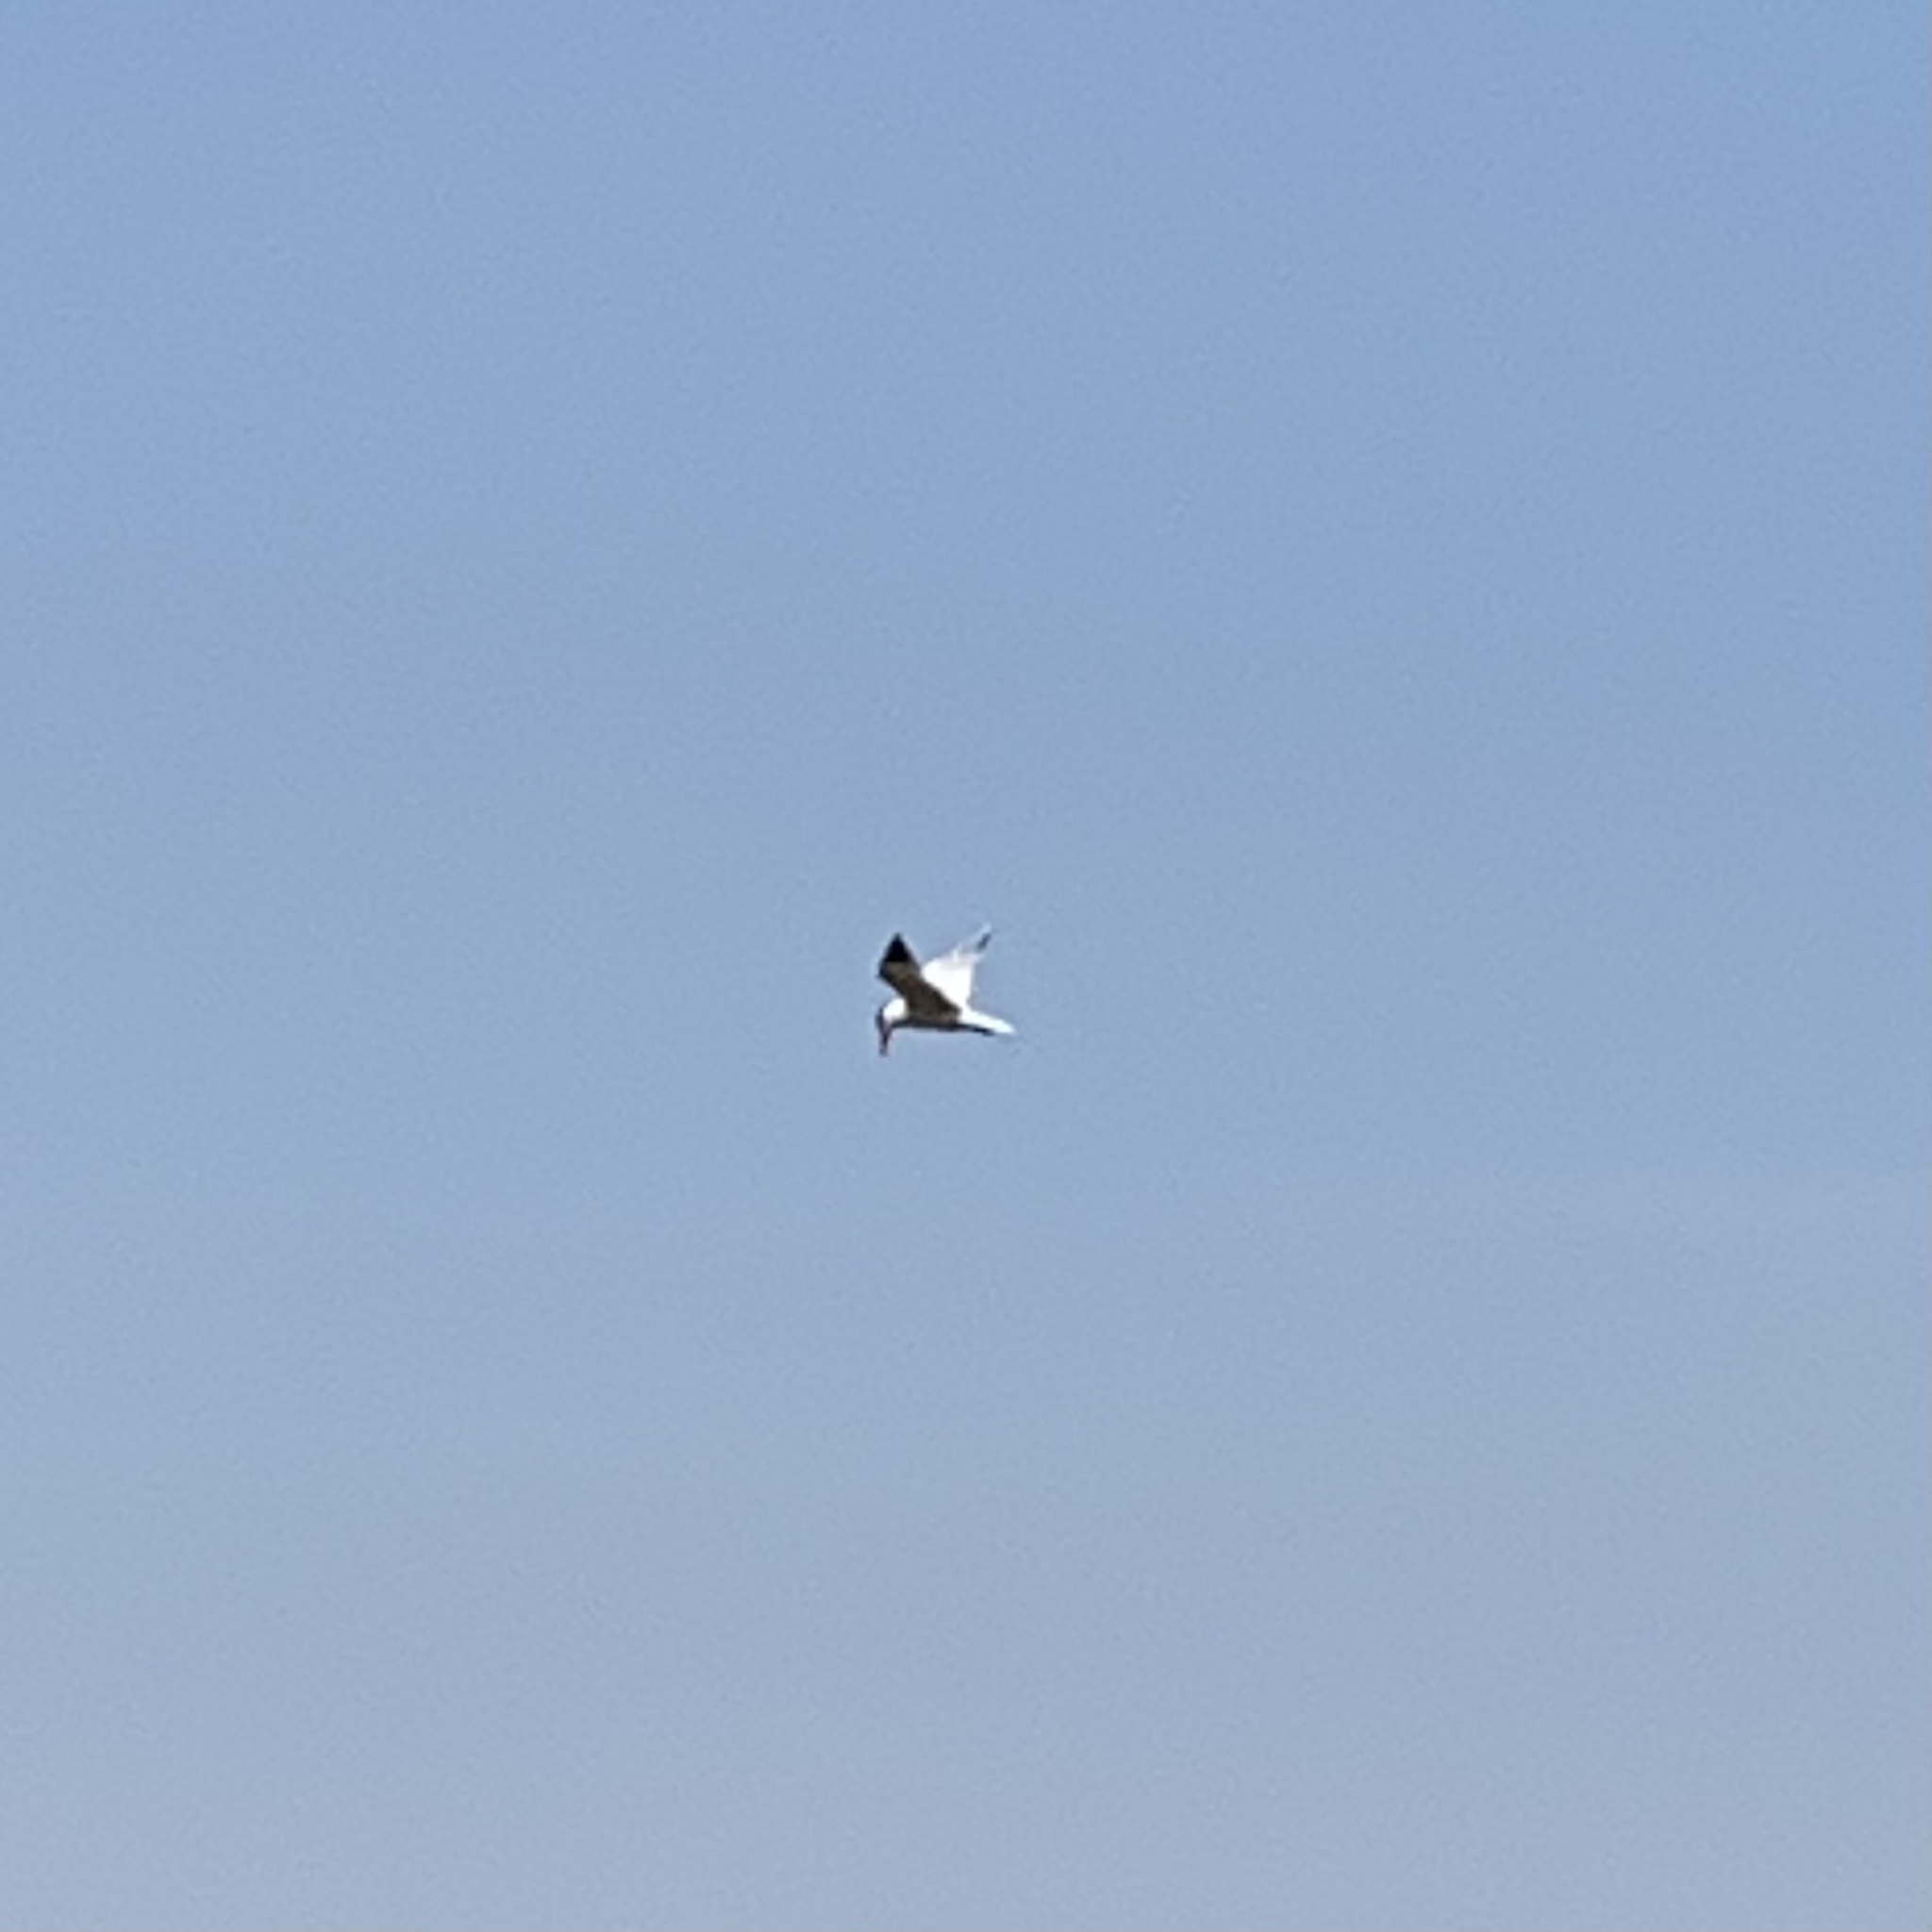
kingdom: Animalia
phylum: Chordata
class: Aves
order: Charadriiformes
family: Laridae
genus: Hydroprogne
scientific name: Hydroprogne caspia
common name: Caspian tern
